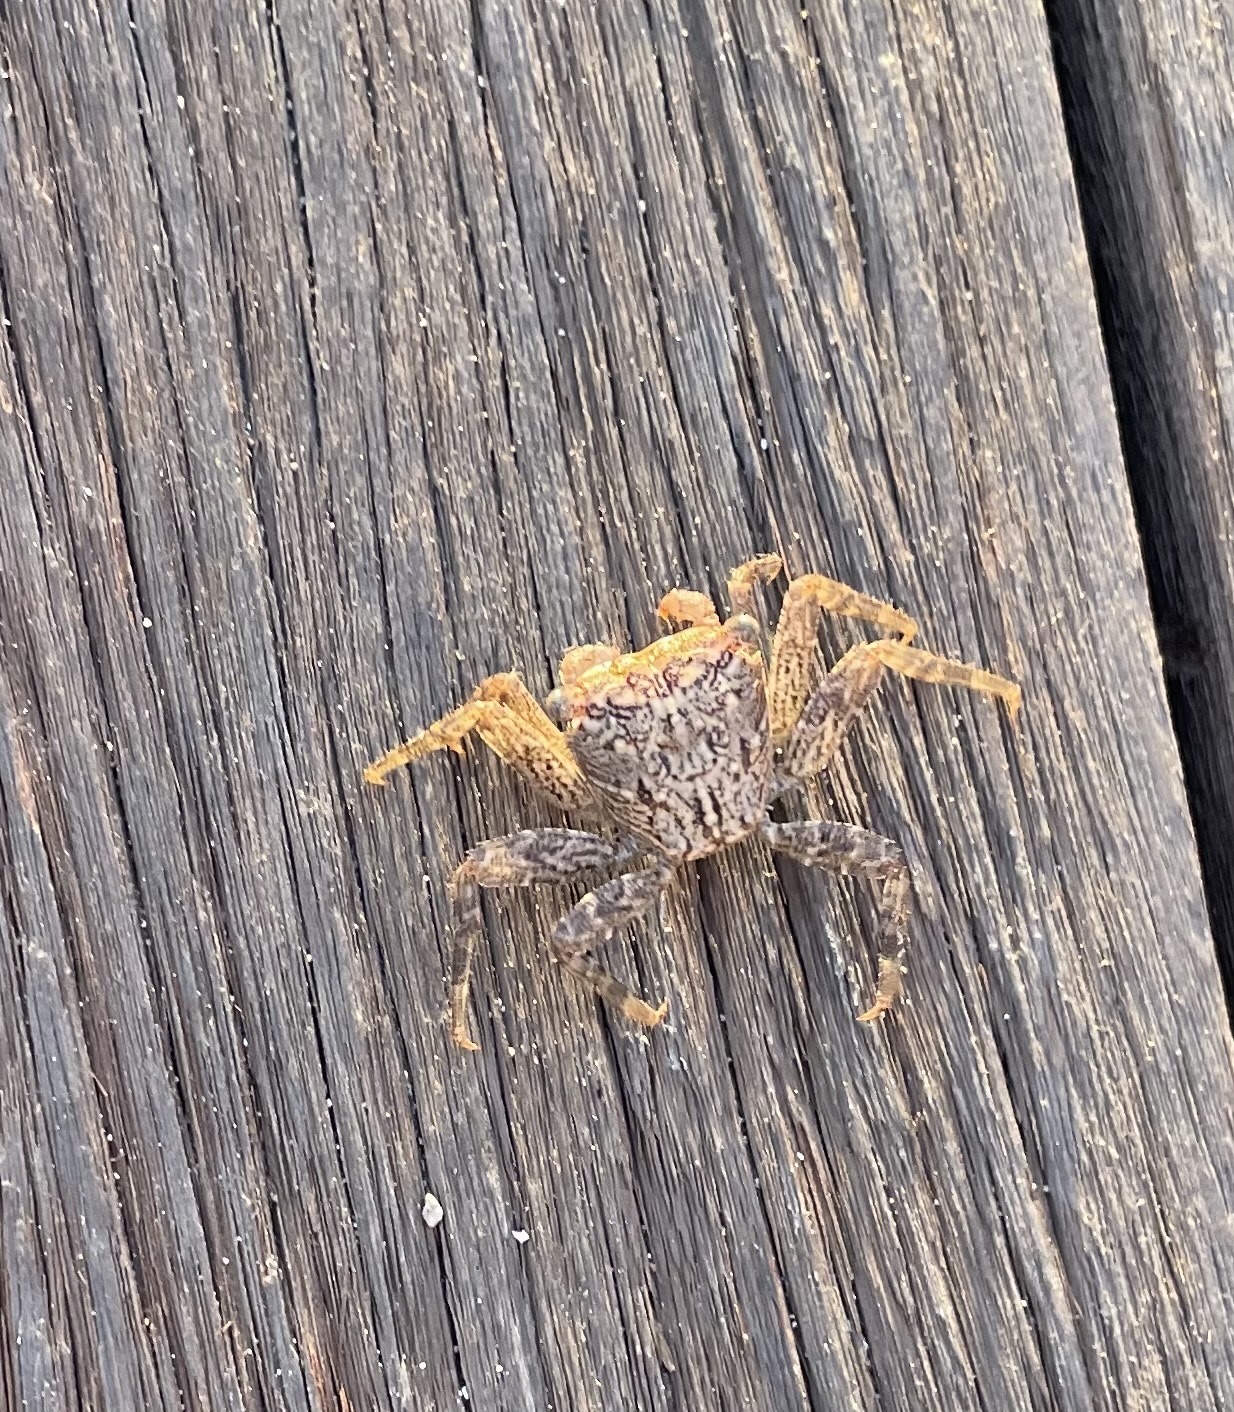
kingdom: Animalia
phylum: Arthropoda
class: Malacostraca
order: Decapoda
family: Sesarmidae
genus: Aratus
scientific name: Aratus pacificus
